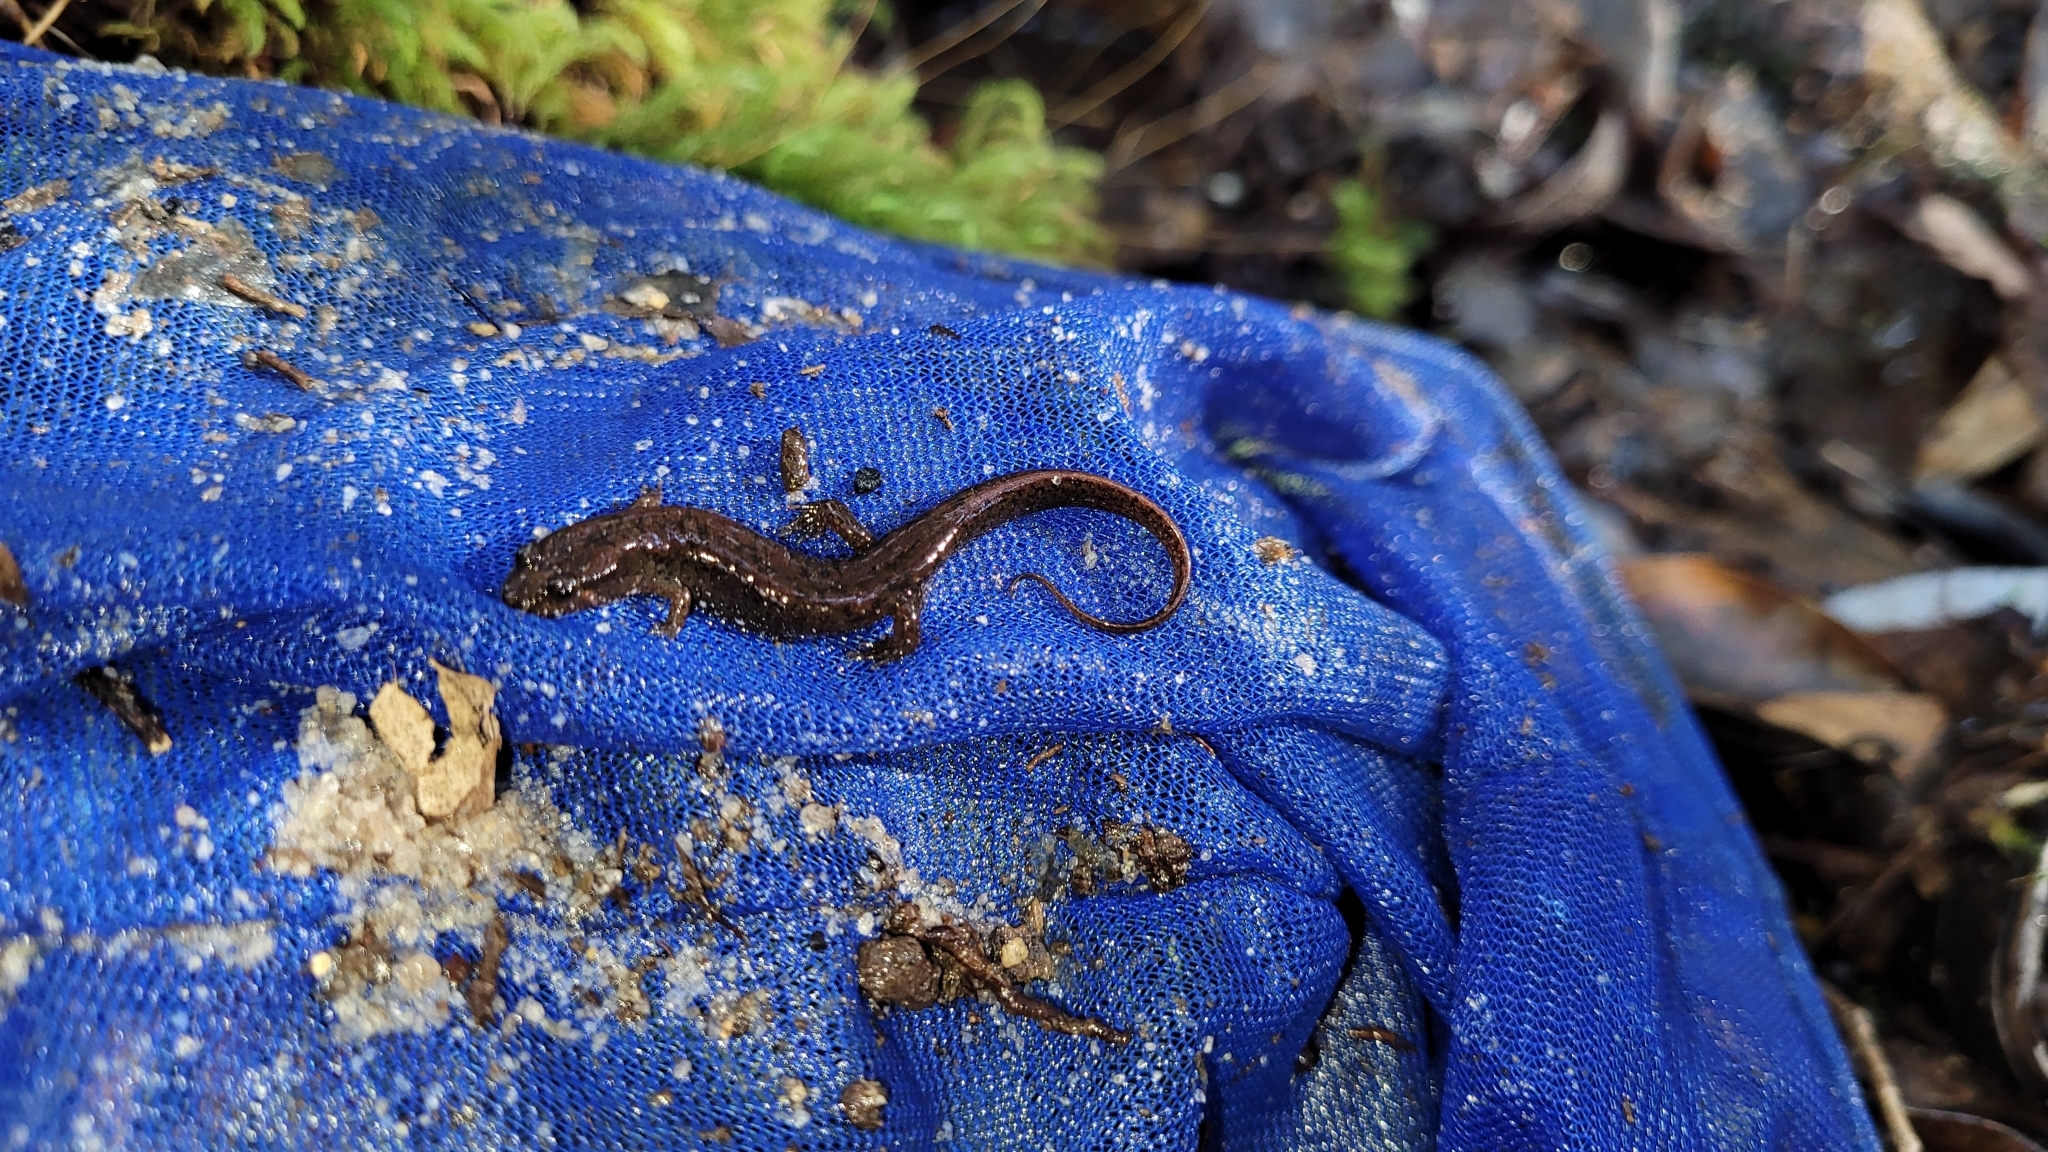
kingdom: Animalia
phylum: Chordata
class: Amphibia
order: Caudata
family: Plethodontidae
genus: Desmognathus
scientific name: Desmognathus conanti
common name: Spotted dusky salamander
